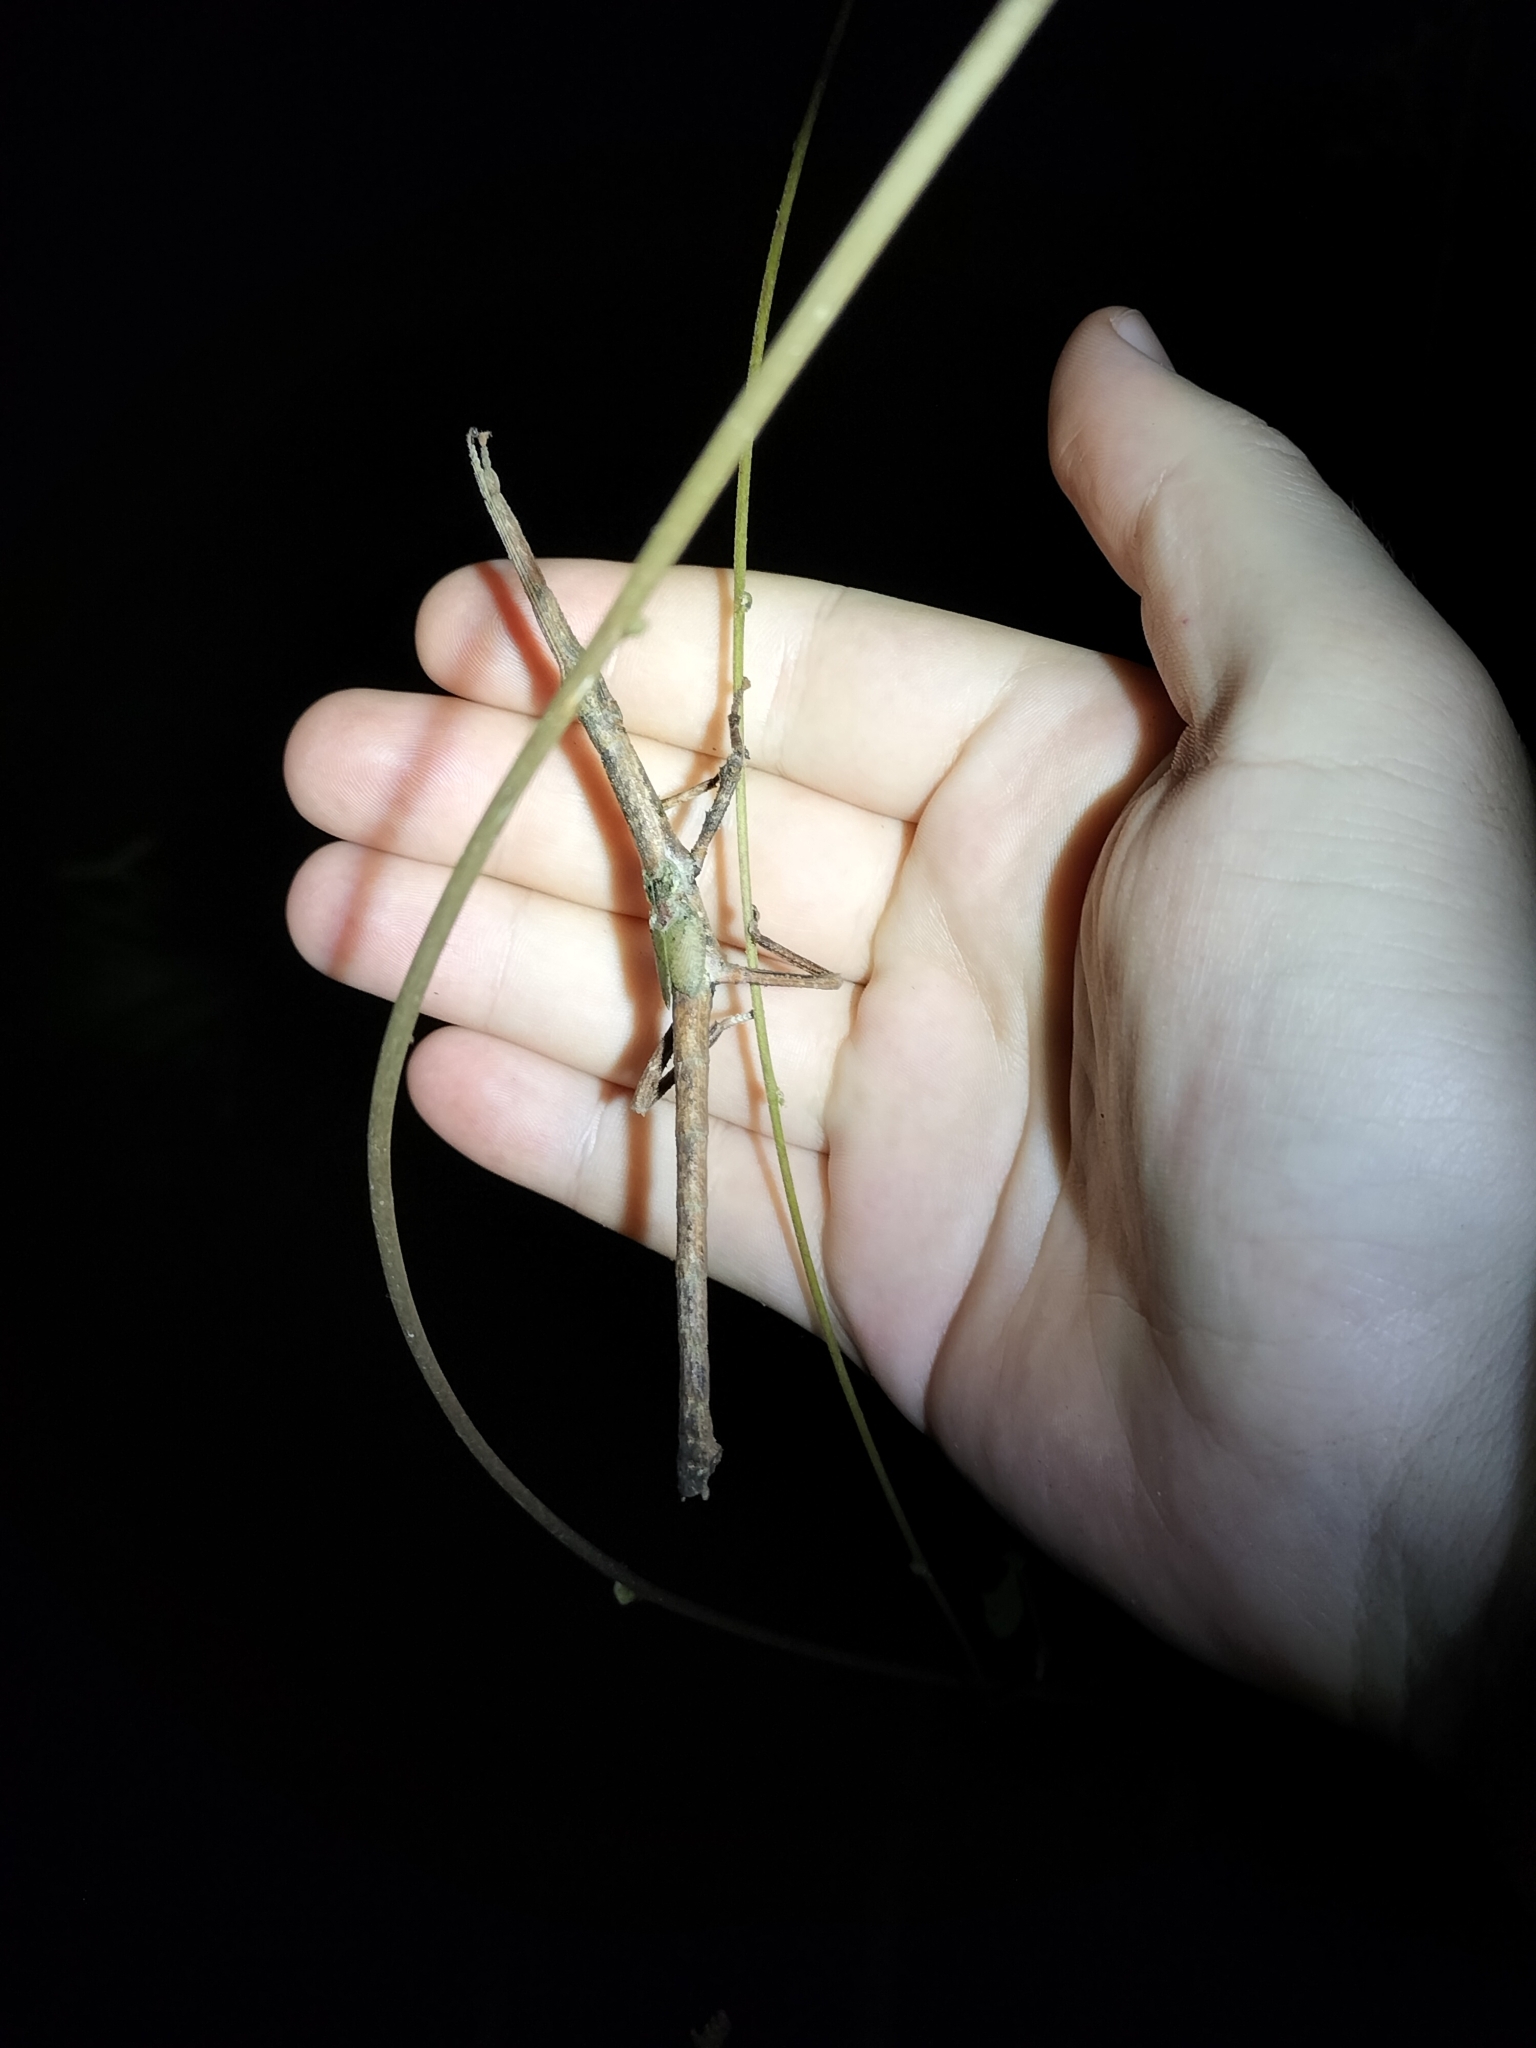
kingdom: Animalia
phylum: Arthropoda
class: Insecta
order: Phasmida
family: Phasmatidae
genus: Cigarrophasma
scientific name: Cigarrophasma tessellatum
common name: Cigar stick insect
